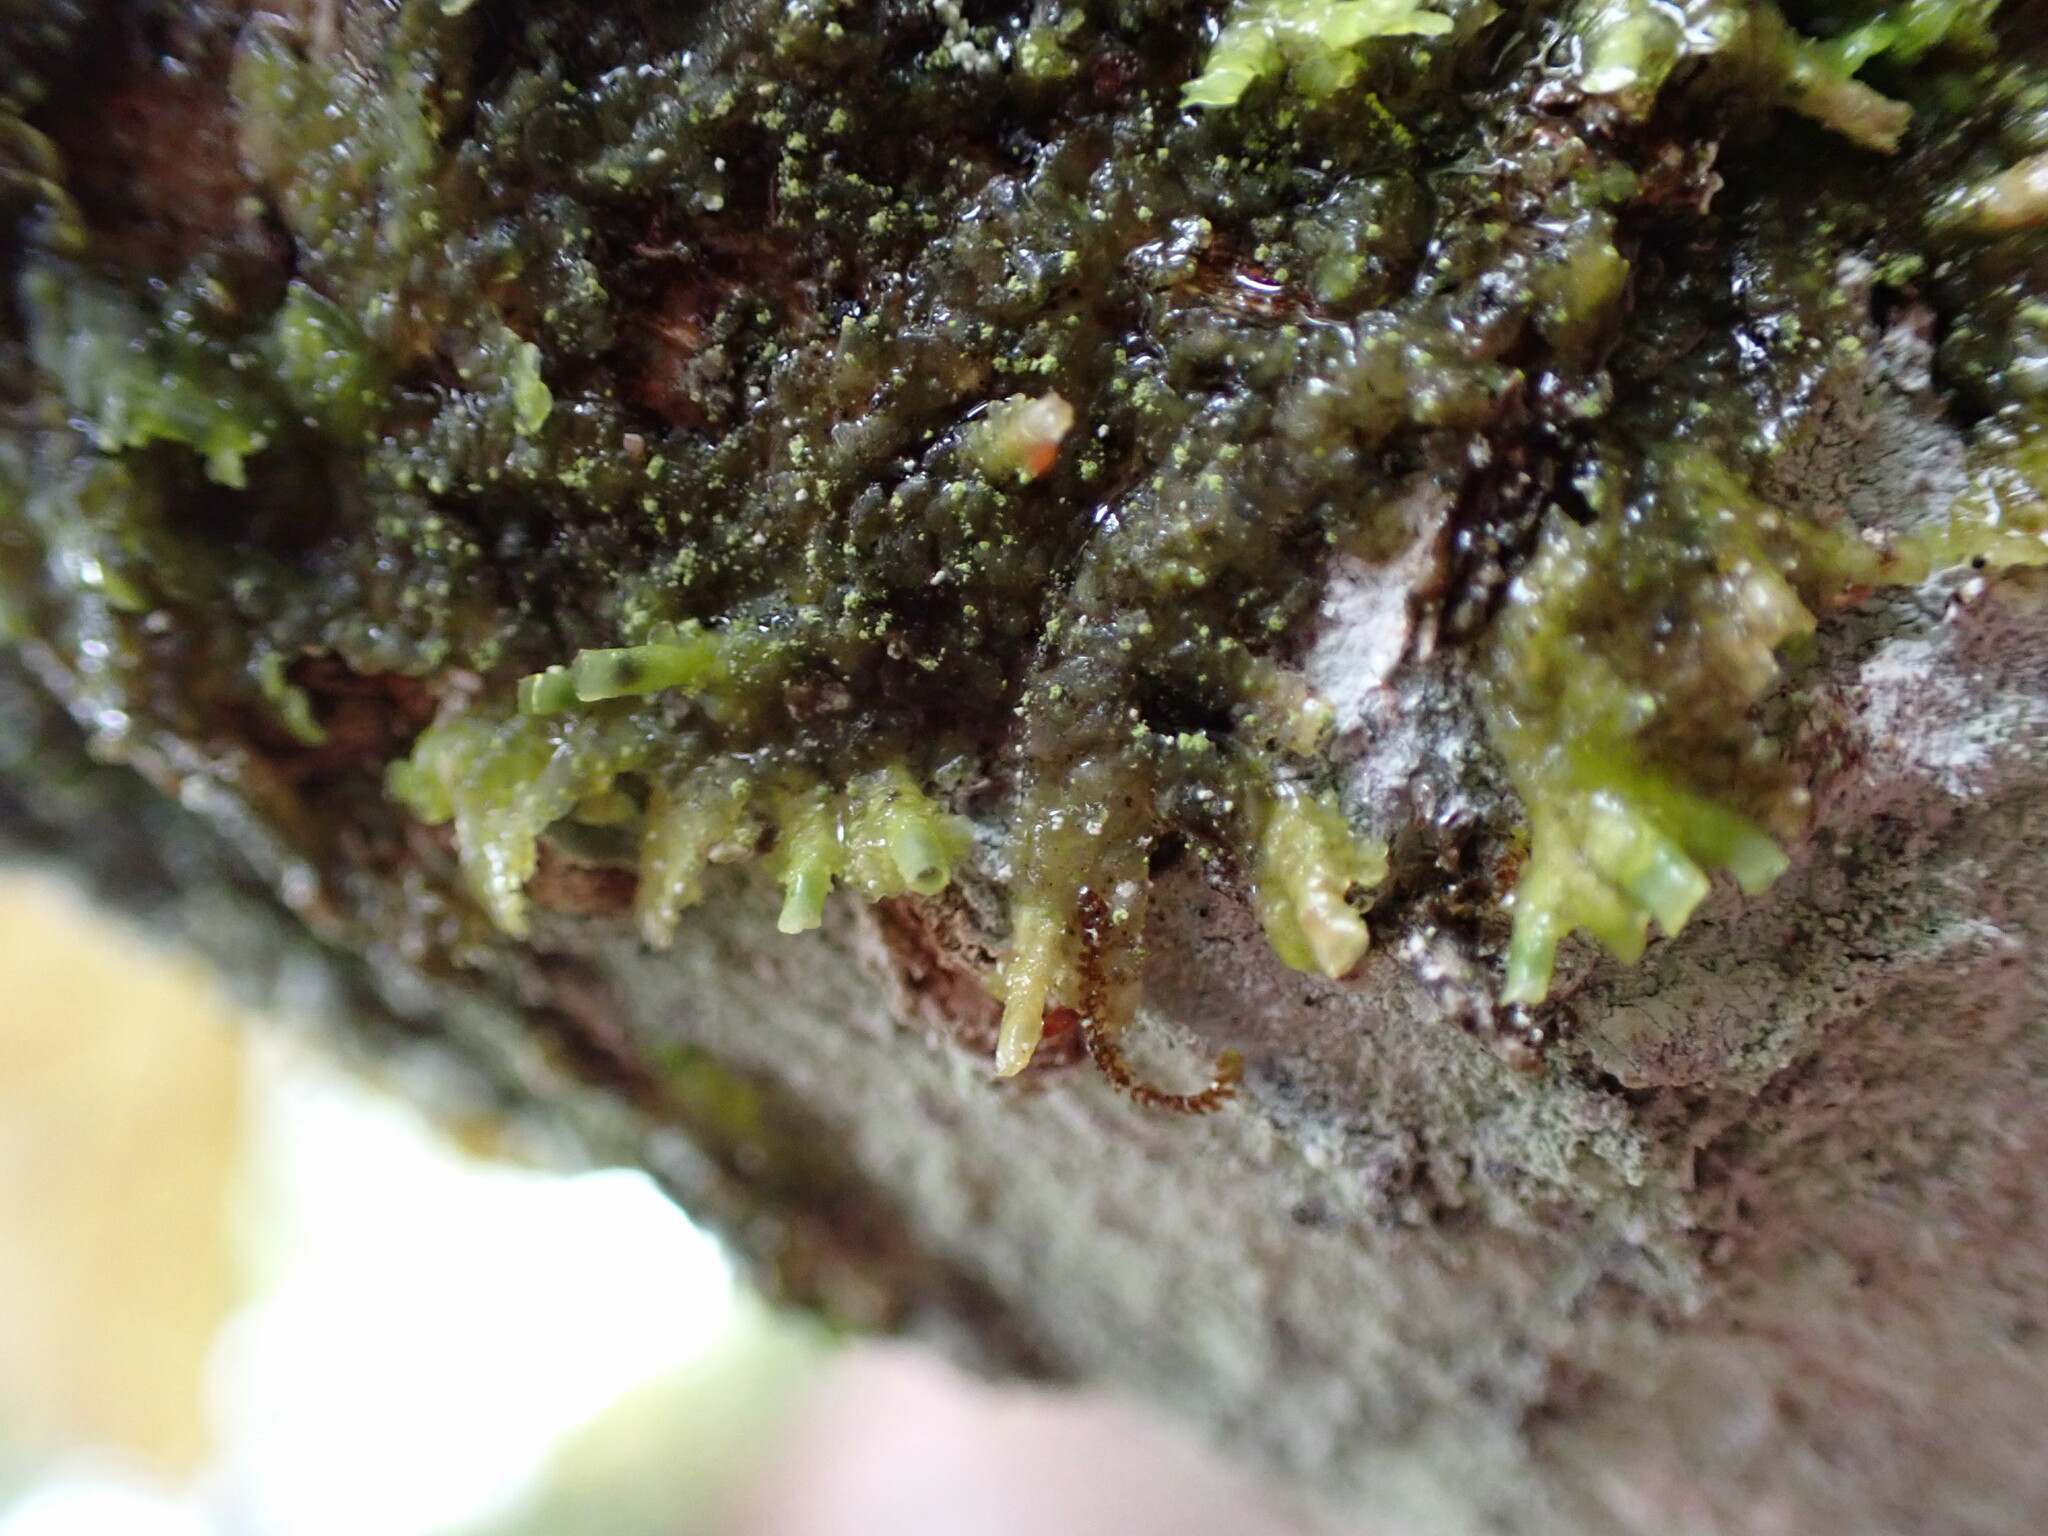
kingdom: Plantae
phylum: Marchantiophyta
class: Jungermanniopsida
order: Porellales
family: Radulaceae
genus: Radula
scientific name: Radula complanata
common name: Flat-leaved scalewort
